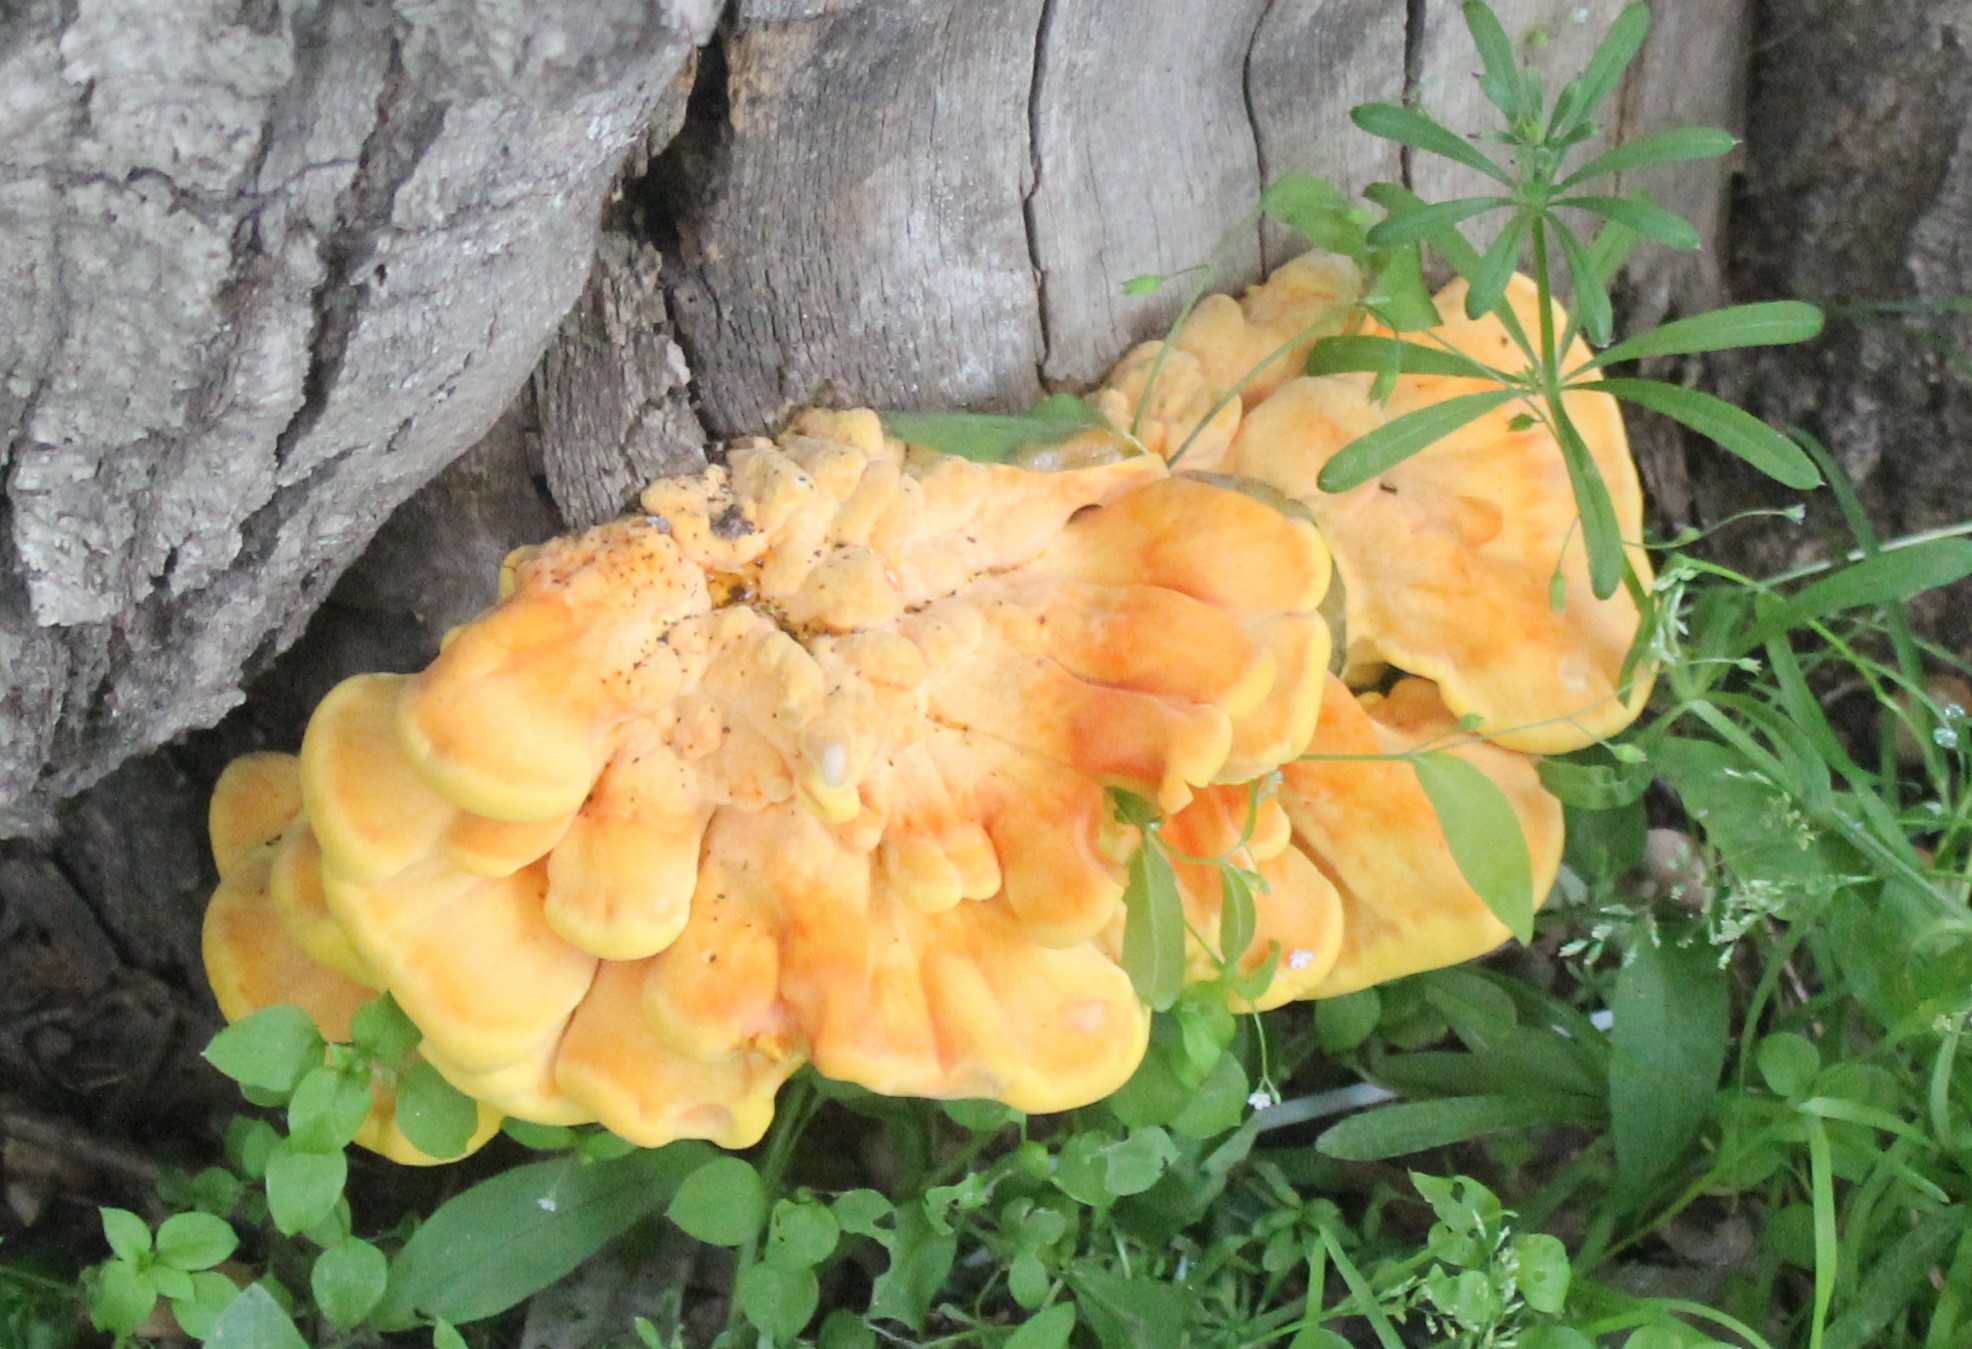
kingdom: Fungi
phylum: Basidiomycota
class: Agaricomycetes
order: Polyporales
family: Laetiporaceae
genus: Laetiporus
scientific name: Laetiporus sulphureus
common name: Chicken of the woods
